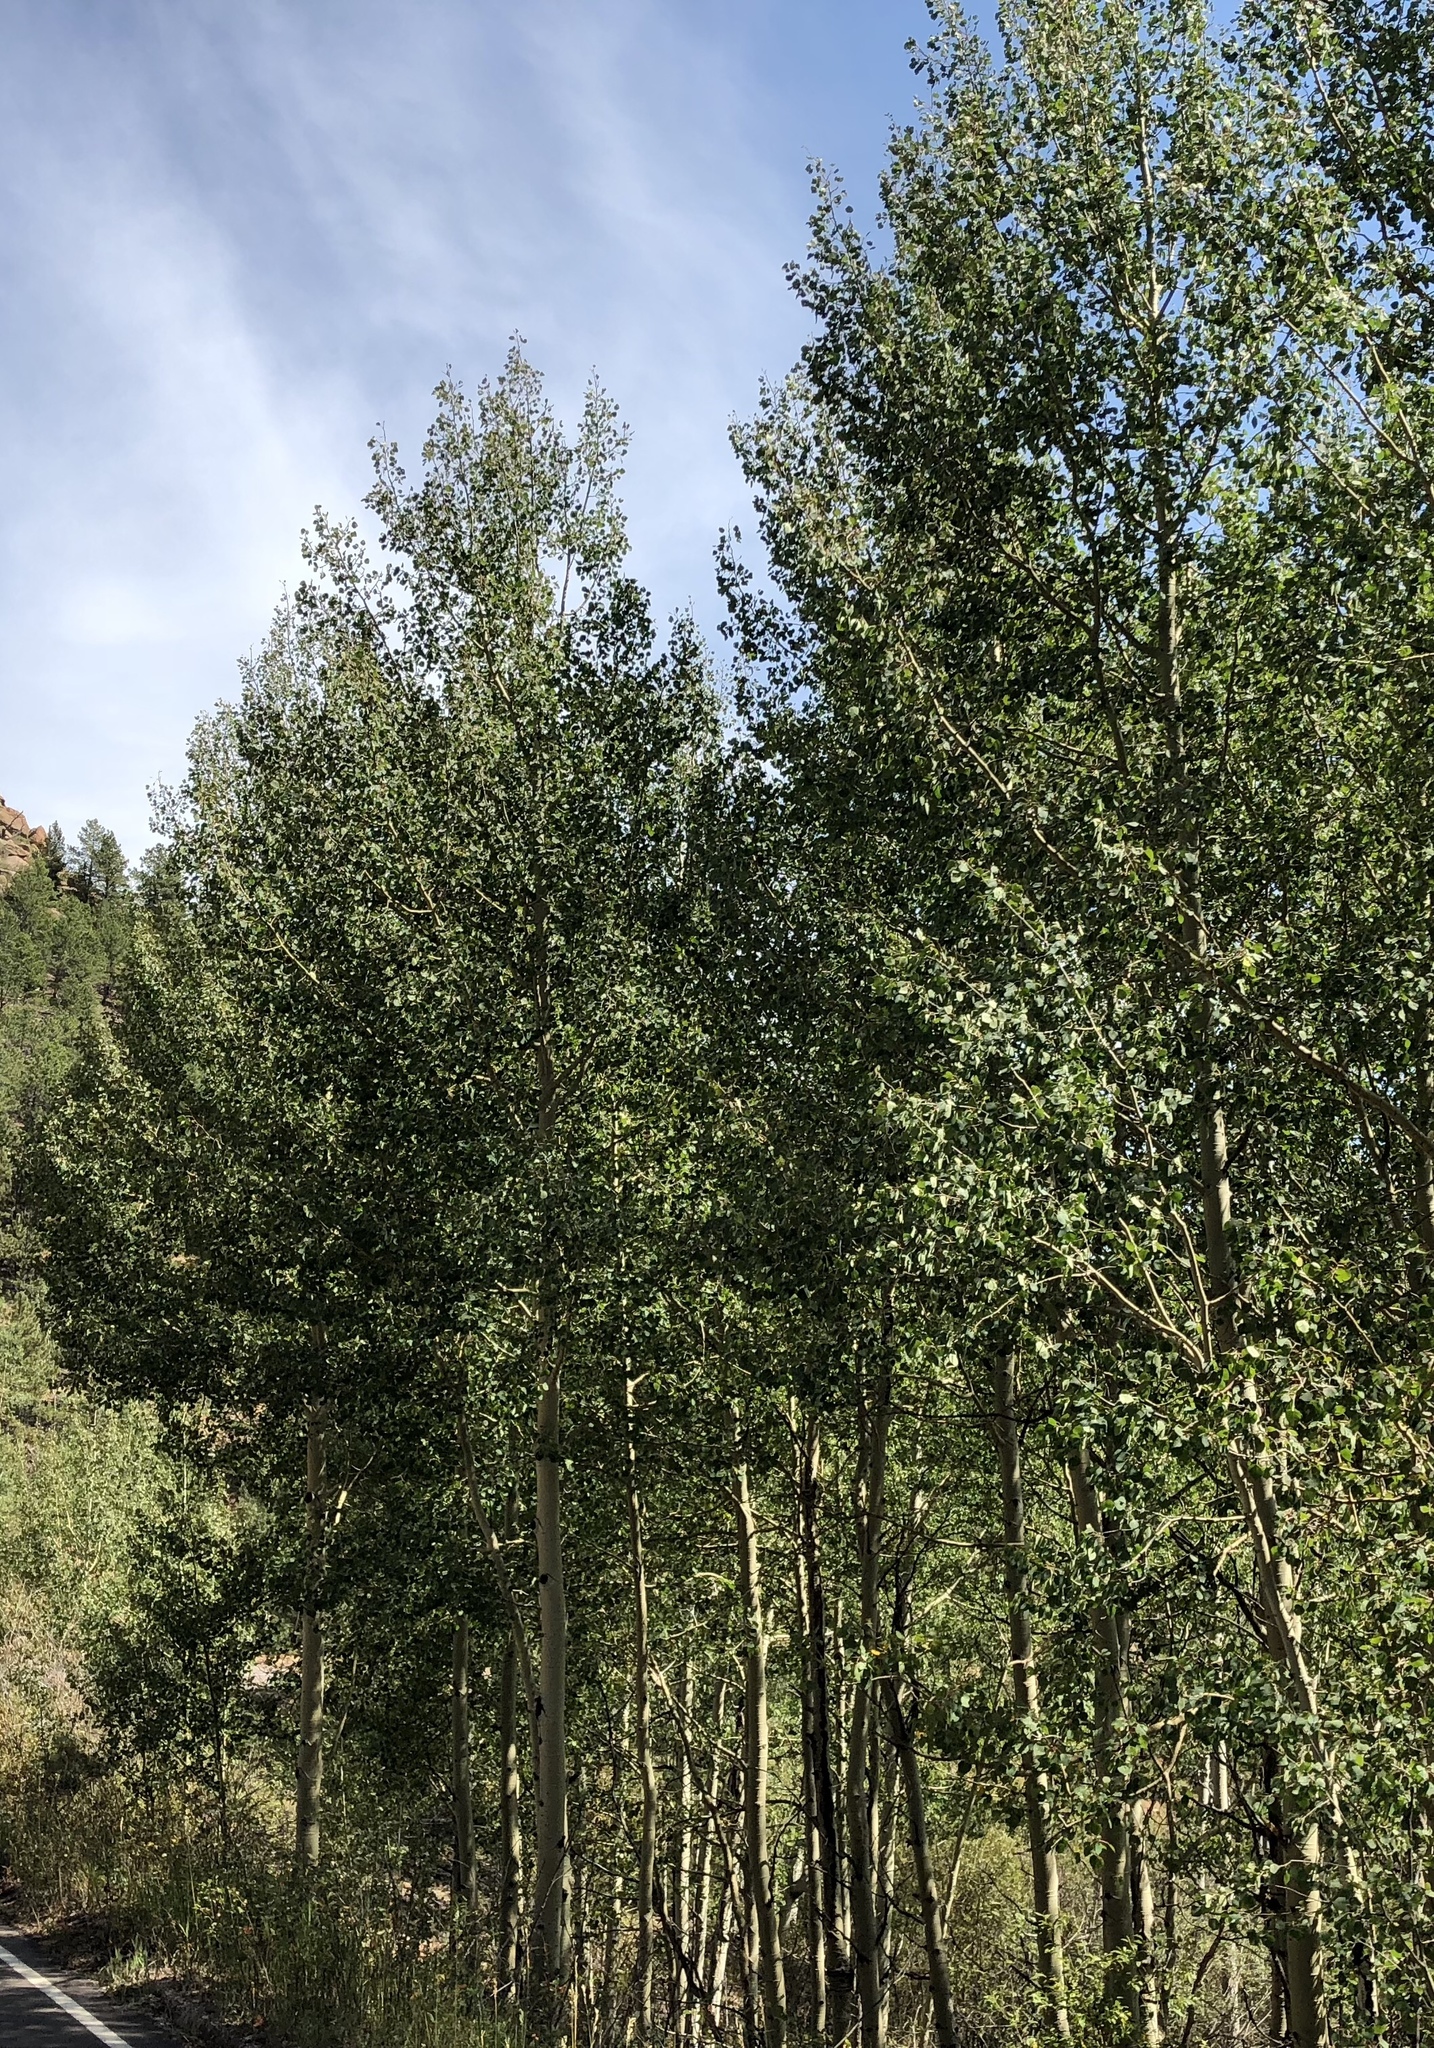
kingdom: Plantae
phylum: Tracheophyta
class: Magnoliopsida
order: Malpighiales
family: Salicaceae
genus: Populus
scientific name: Populus tremuloides
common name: Quaking aspen
